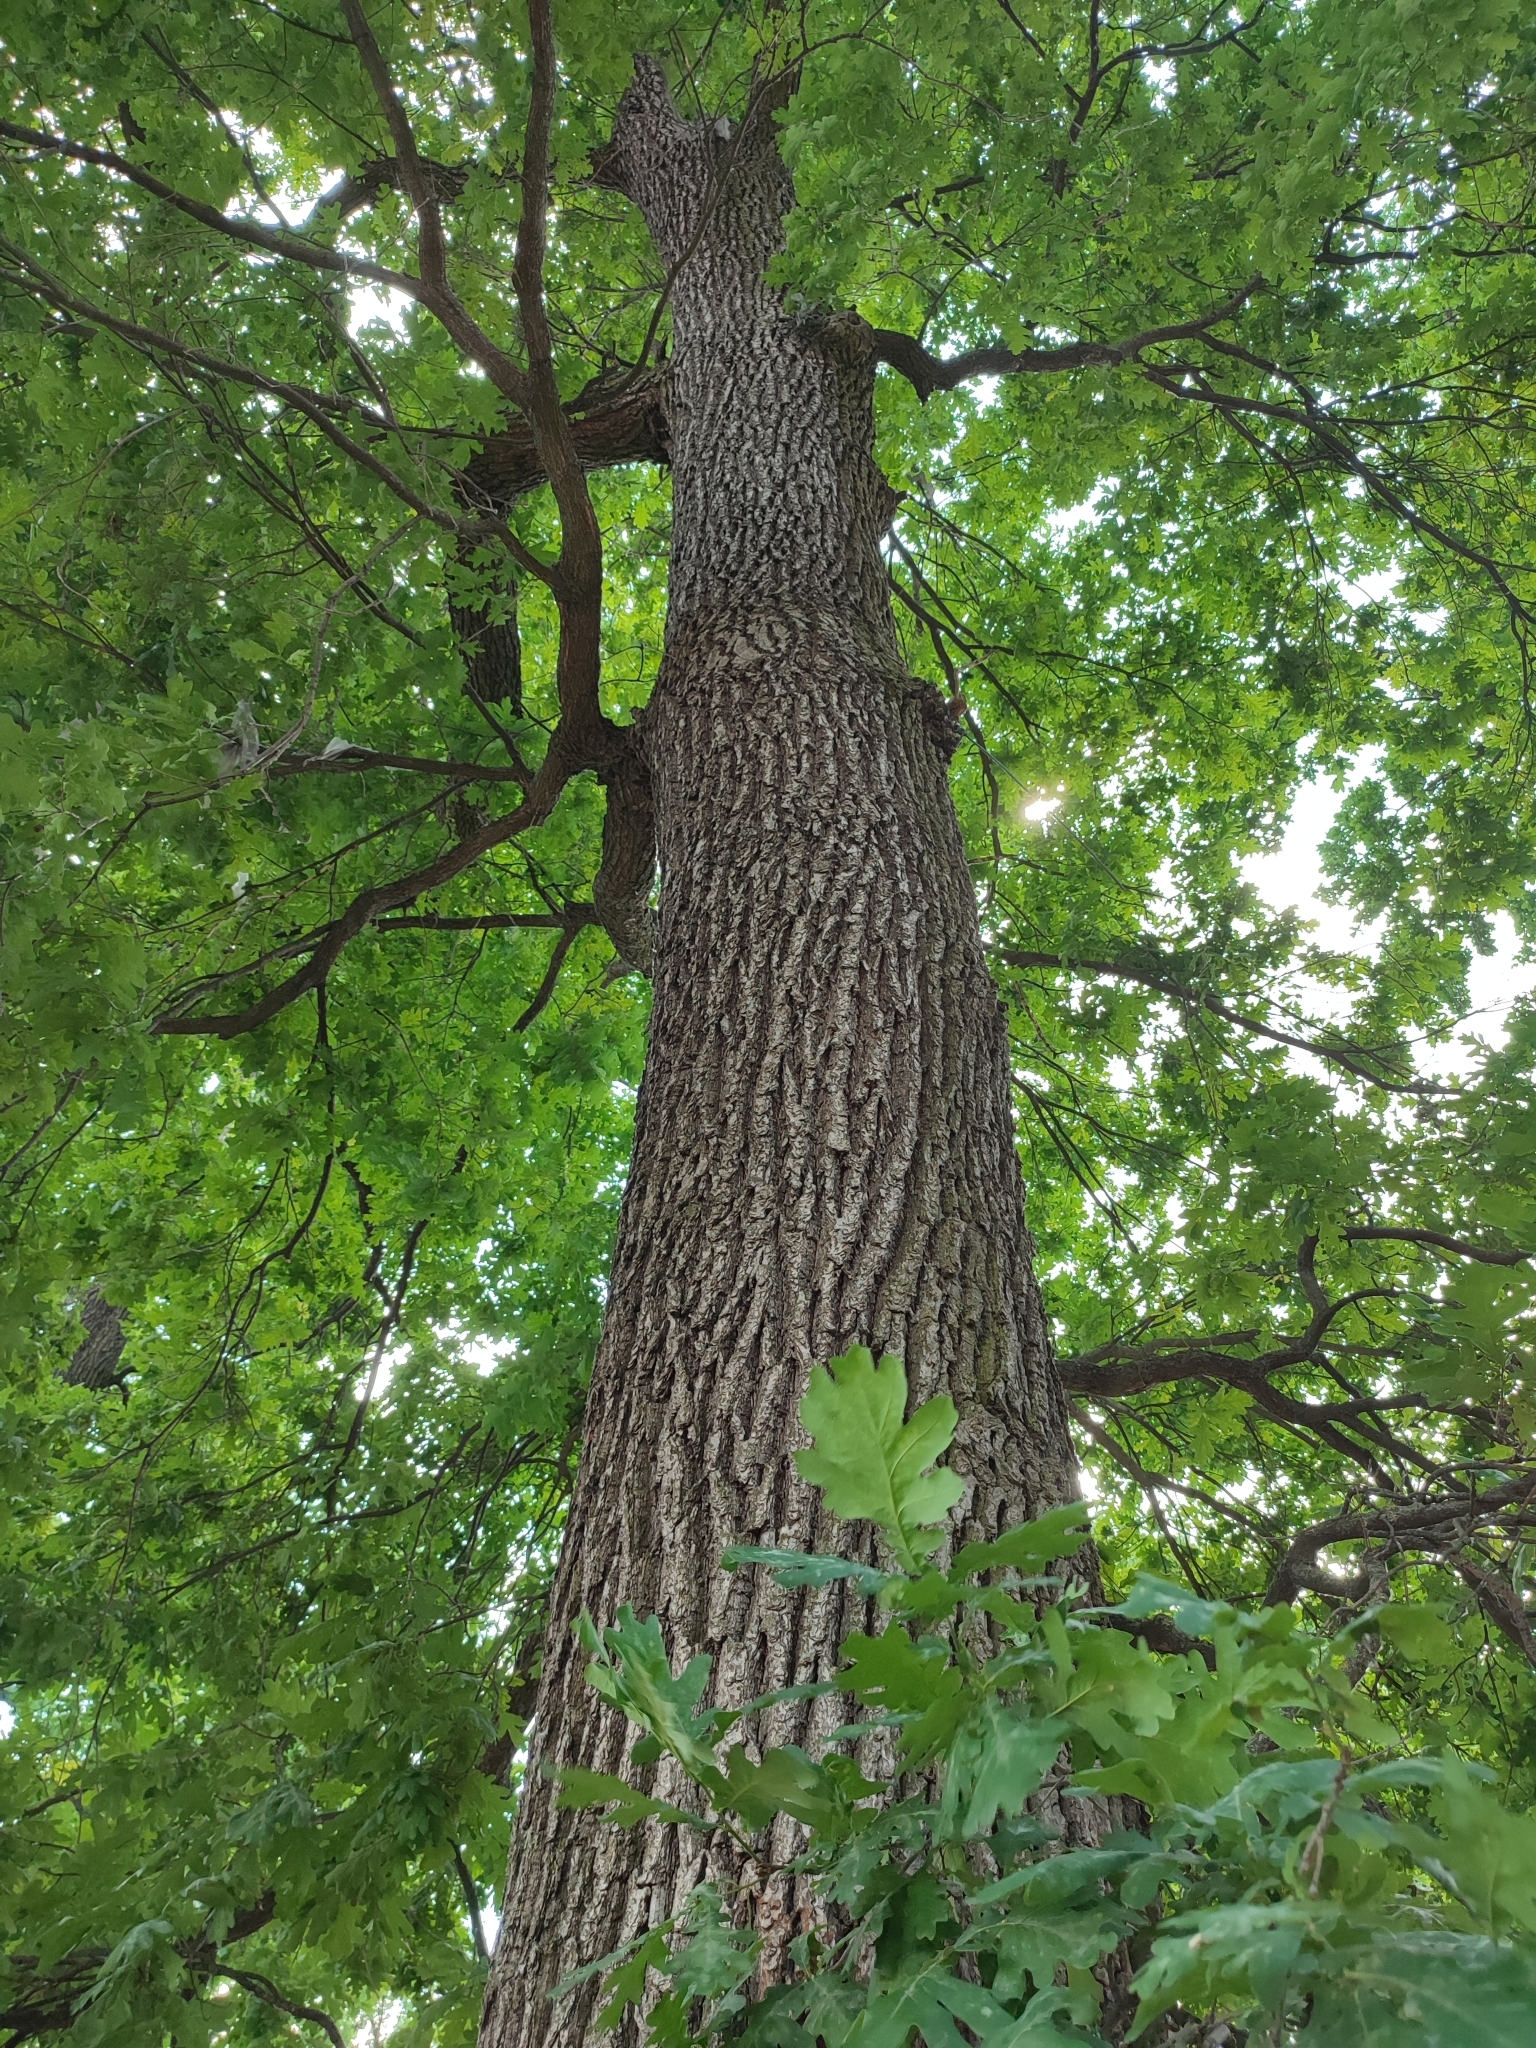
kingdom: Plantae
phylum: Tracheophyta
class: Magnoliopsida
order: Fagales
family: Fagaceae
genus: Quercus
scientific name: Quercus robur
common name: Pedunculate oak
